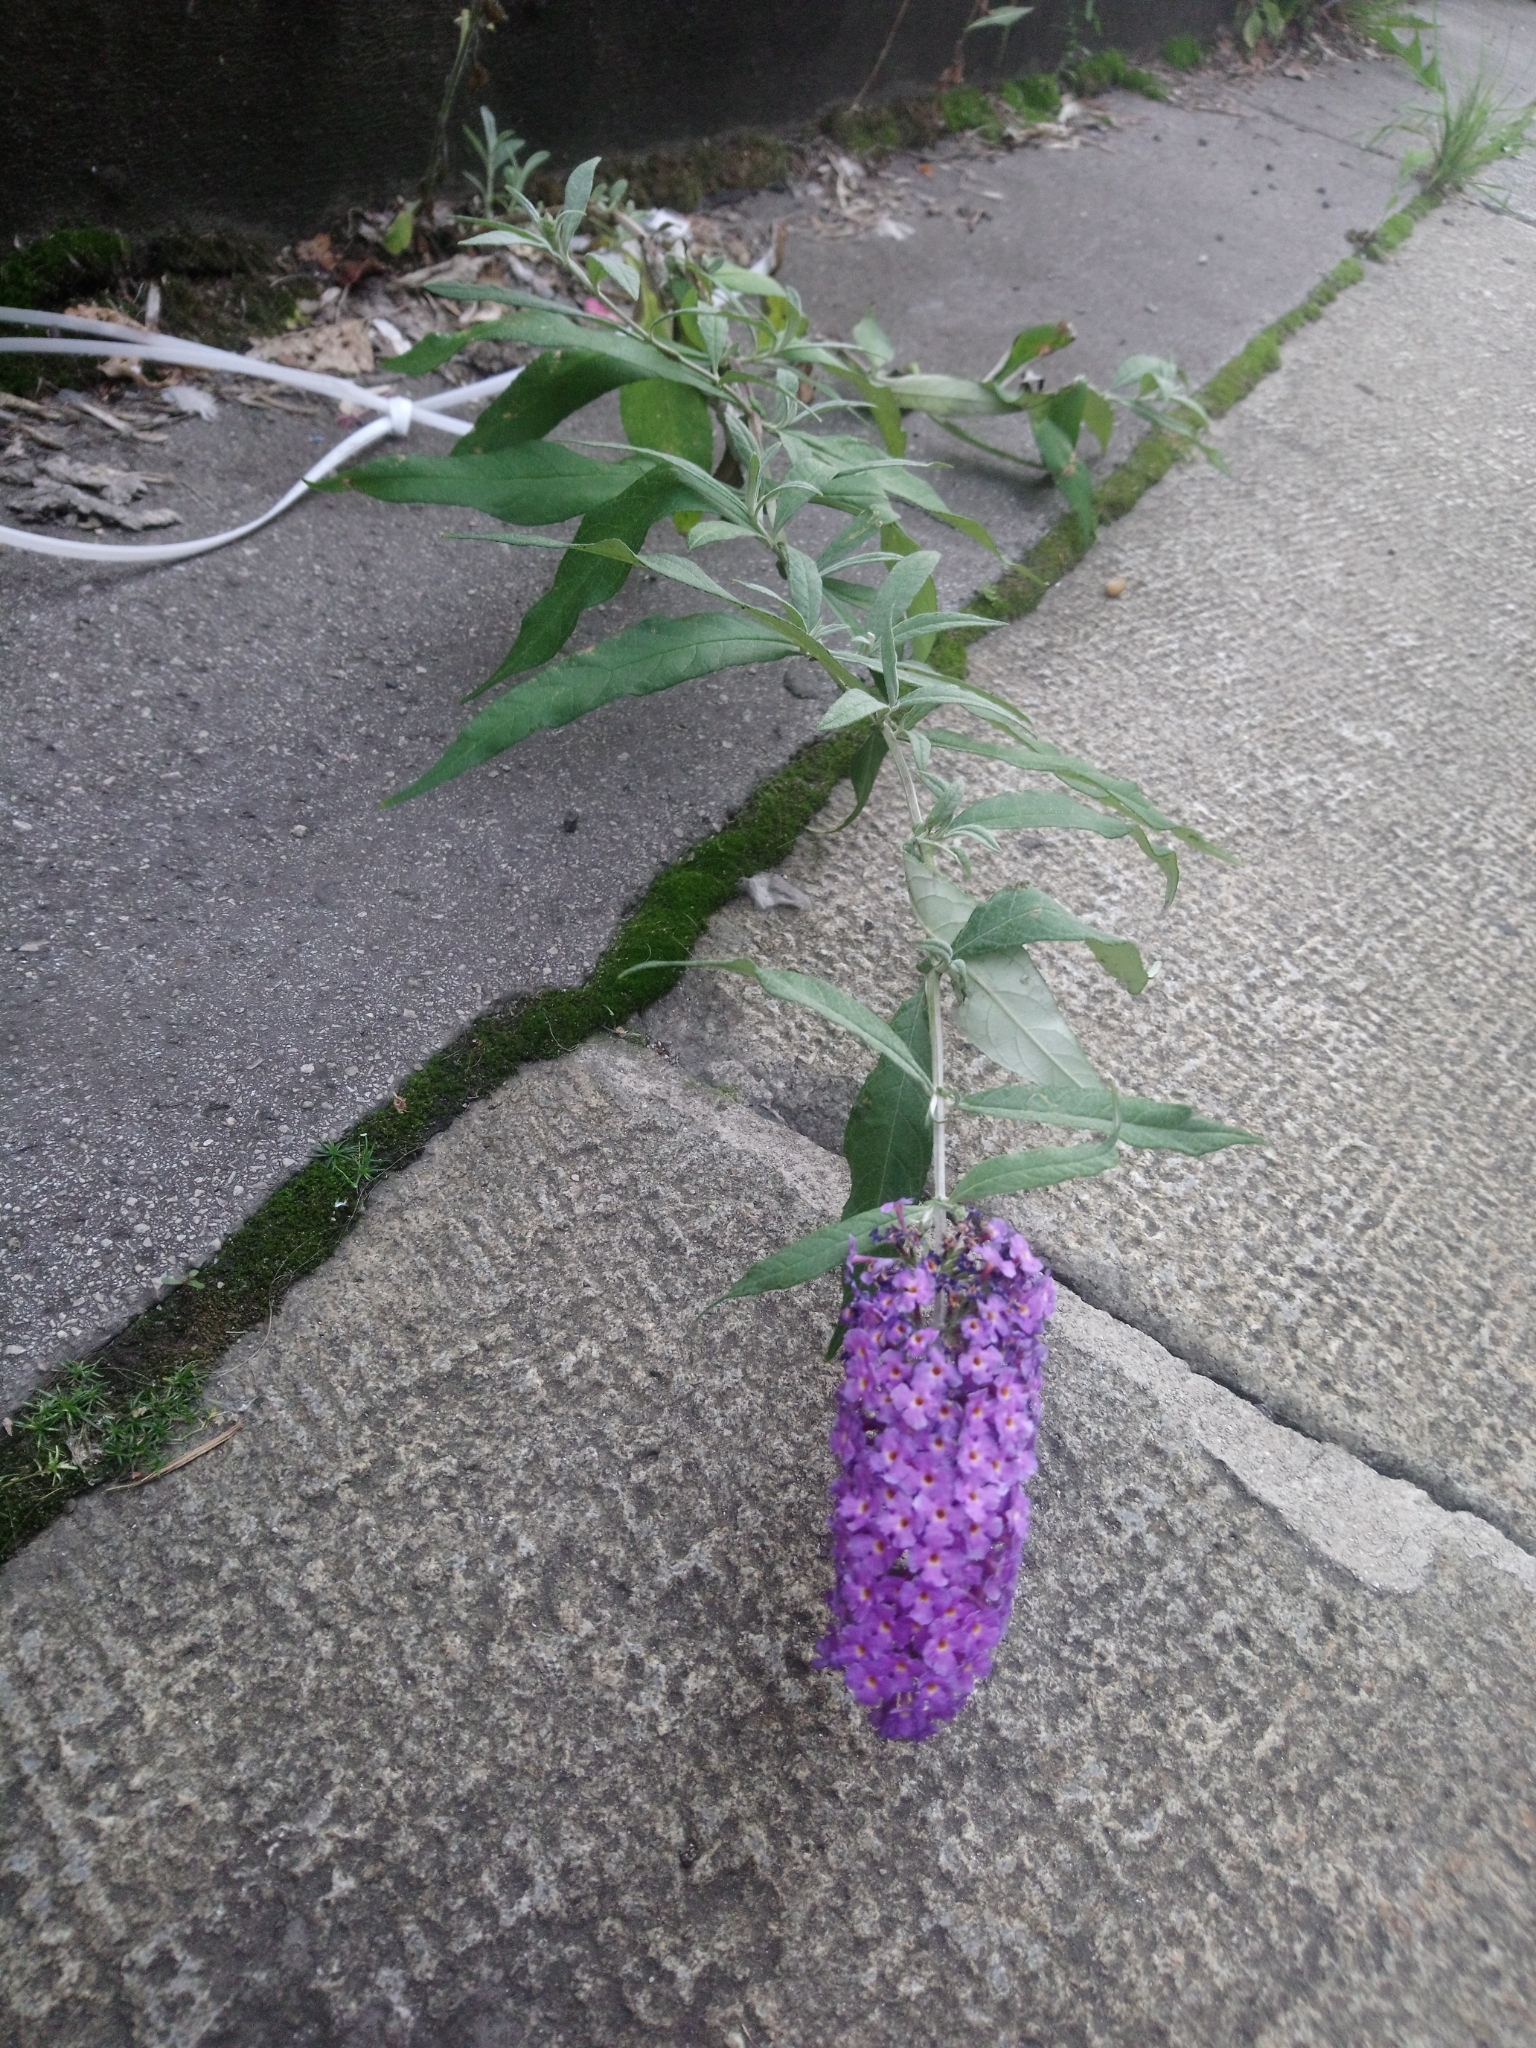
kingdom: Plantae
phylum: Tracheophyta
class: Magnoliopsida
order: Lamiales
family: Scrophulariaceae
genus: Buddleja
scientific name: Buddleja davidii
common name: Butterfly-bush
